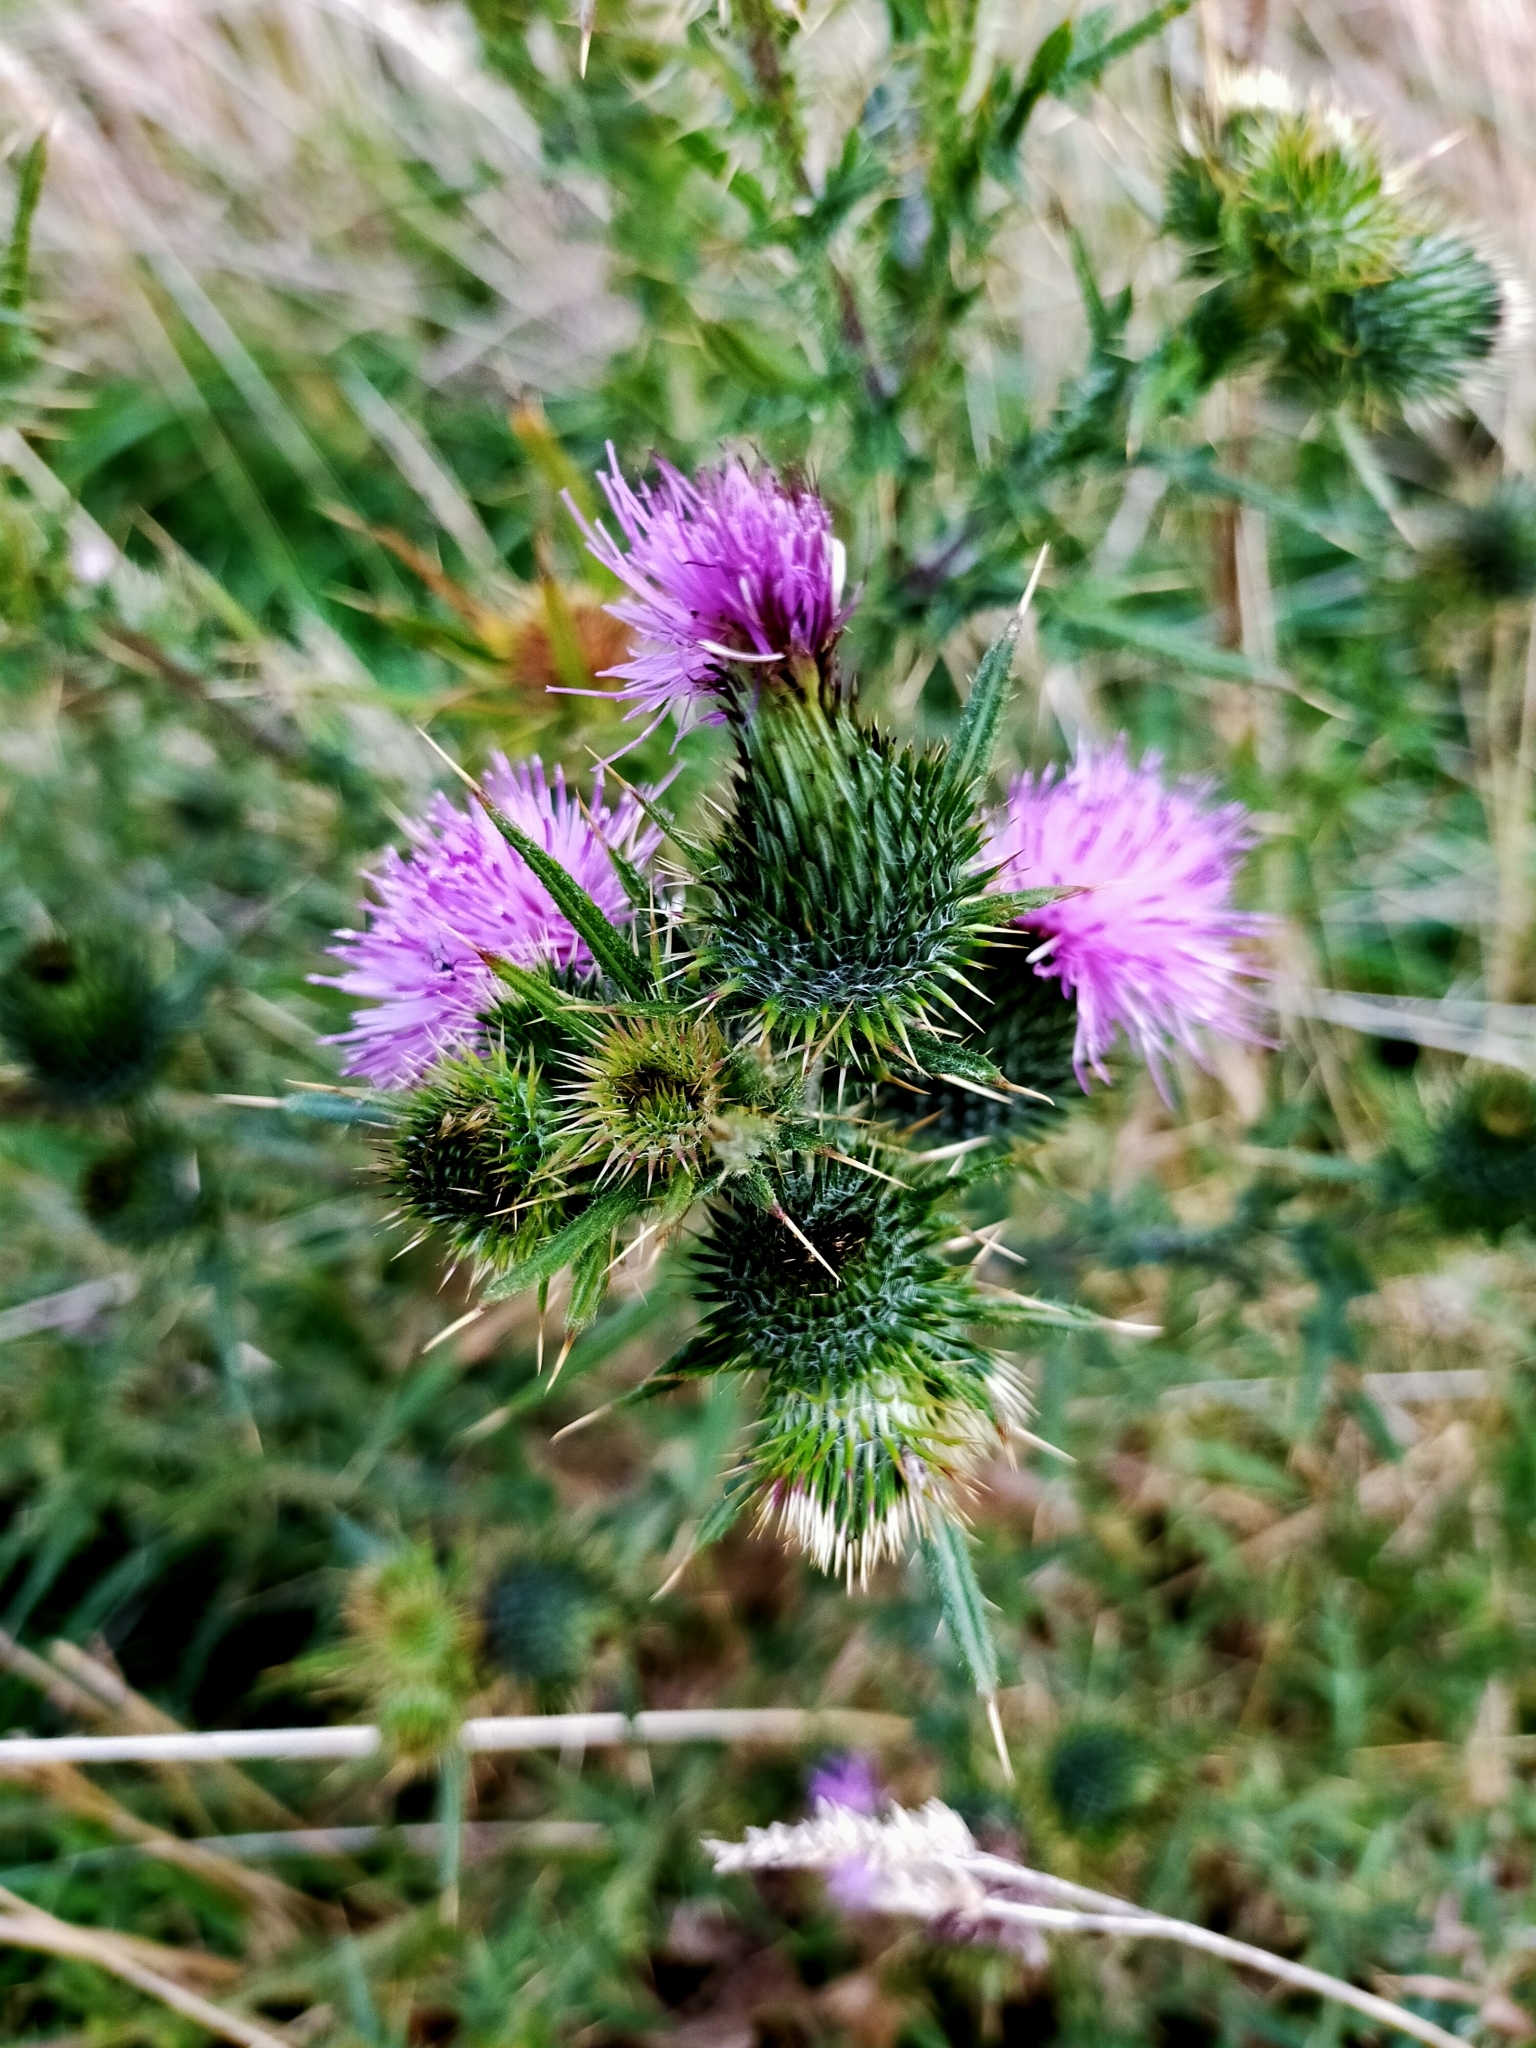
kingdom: Plantae
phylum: Tracheophyta
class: Magnoliopsida
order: Asterales
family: Asteraceae
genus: Cirsium
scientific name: Cirsium vulgare
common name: Bull thistle
